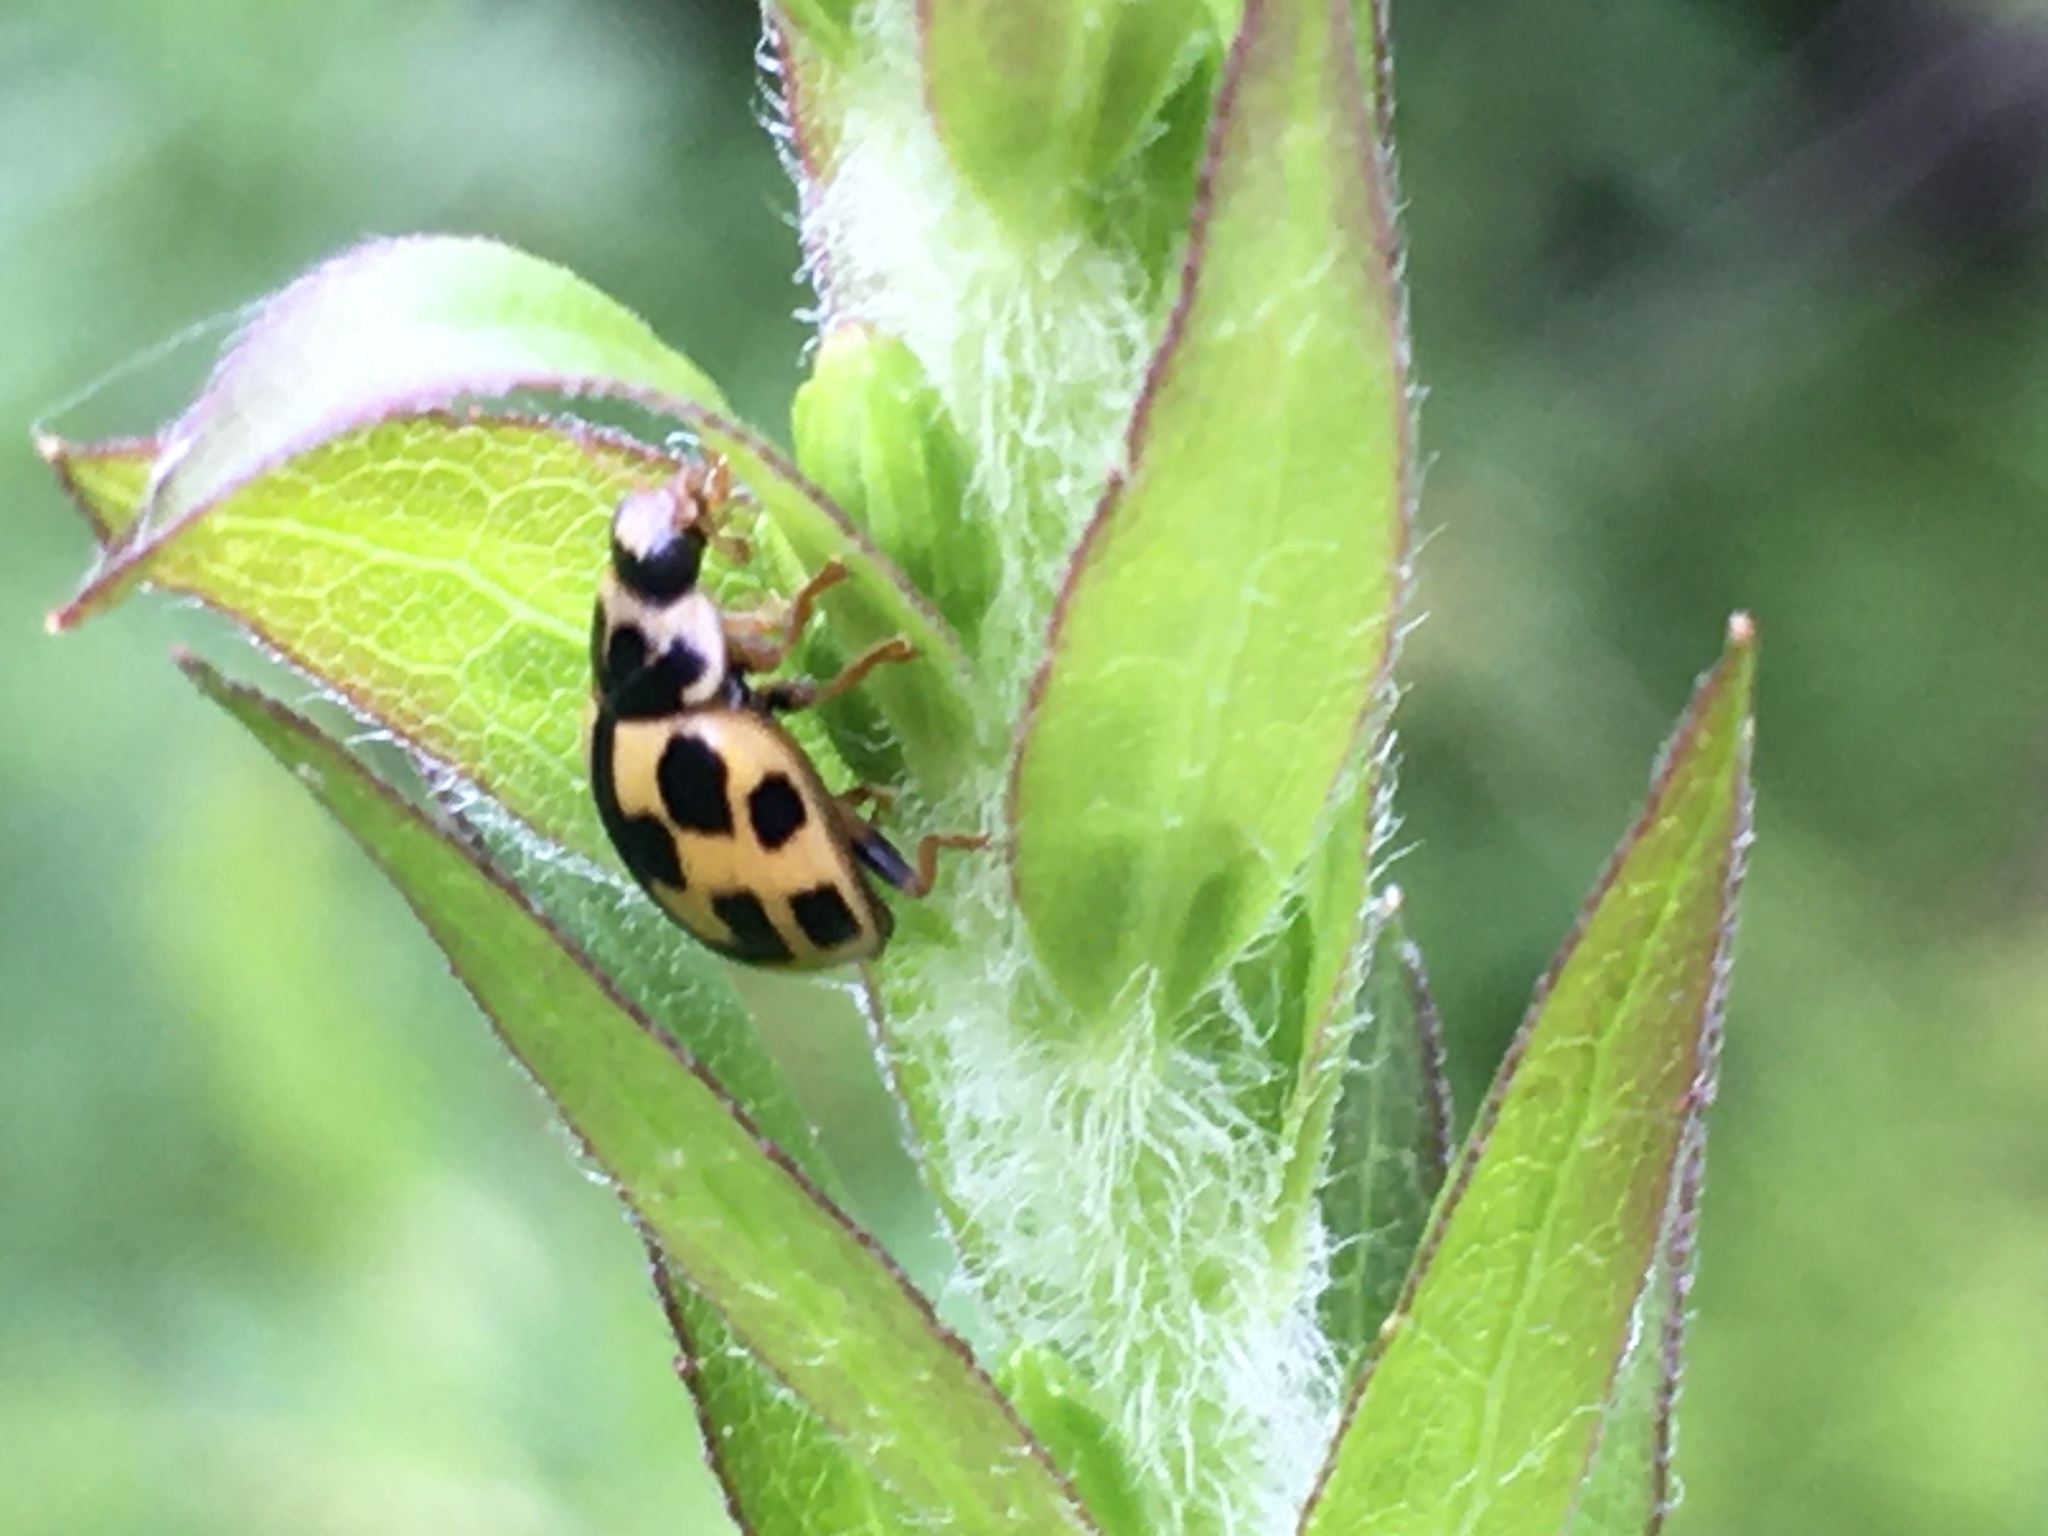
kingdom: Animalia
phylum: Arthropoda
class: Insecta
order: Coleoptera
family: Coccinellidae
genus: Propylaea
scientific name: Propylaea quatuordecimpunctata
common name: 14-spotted ladybird beetle
